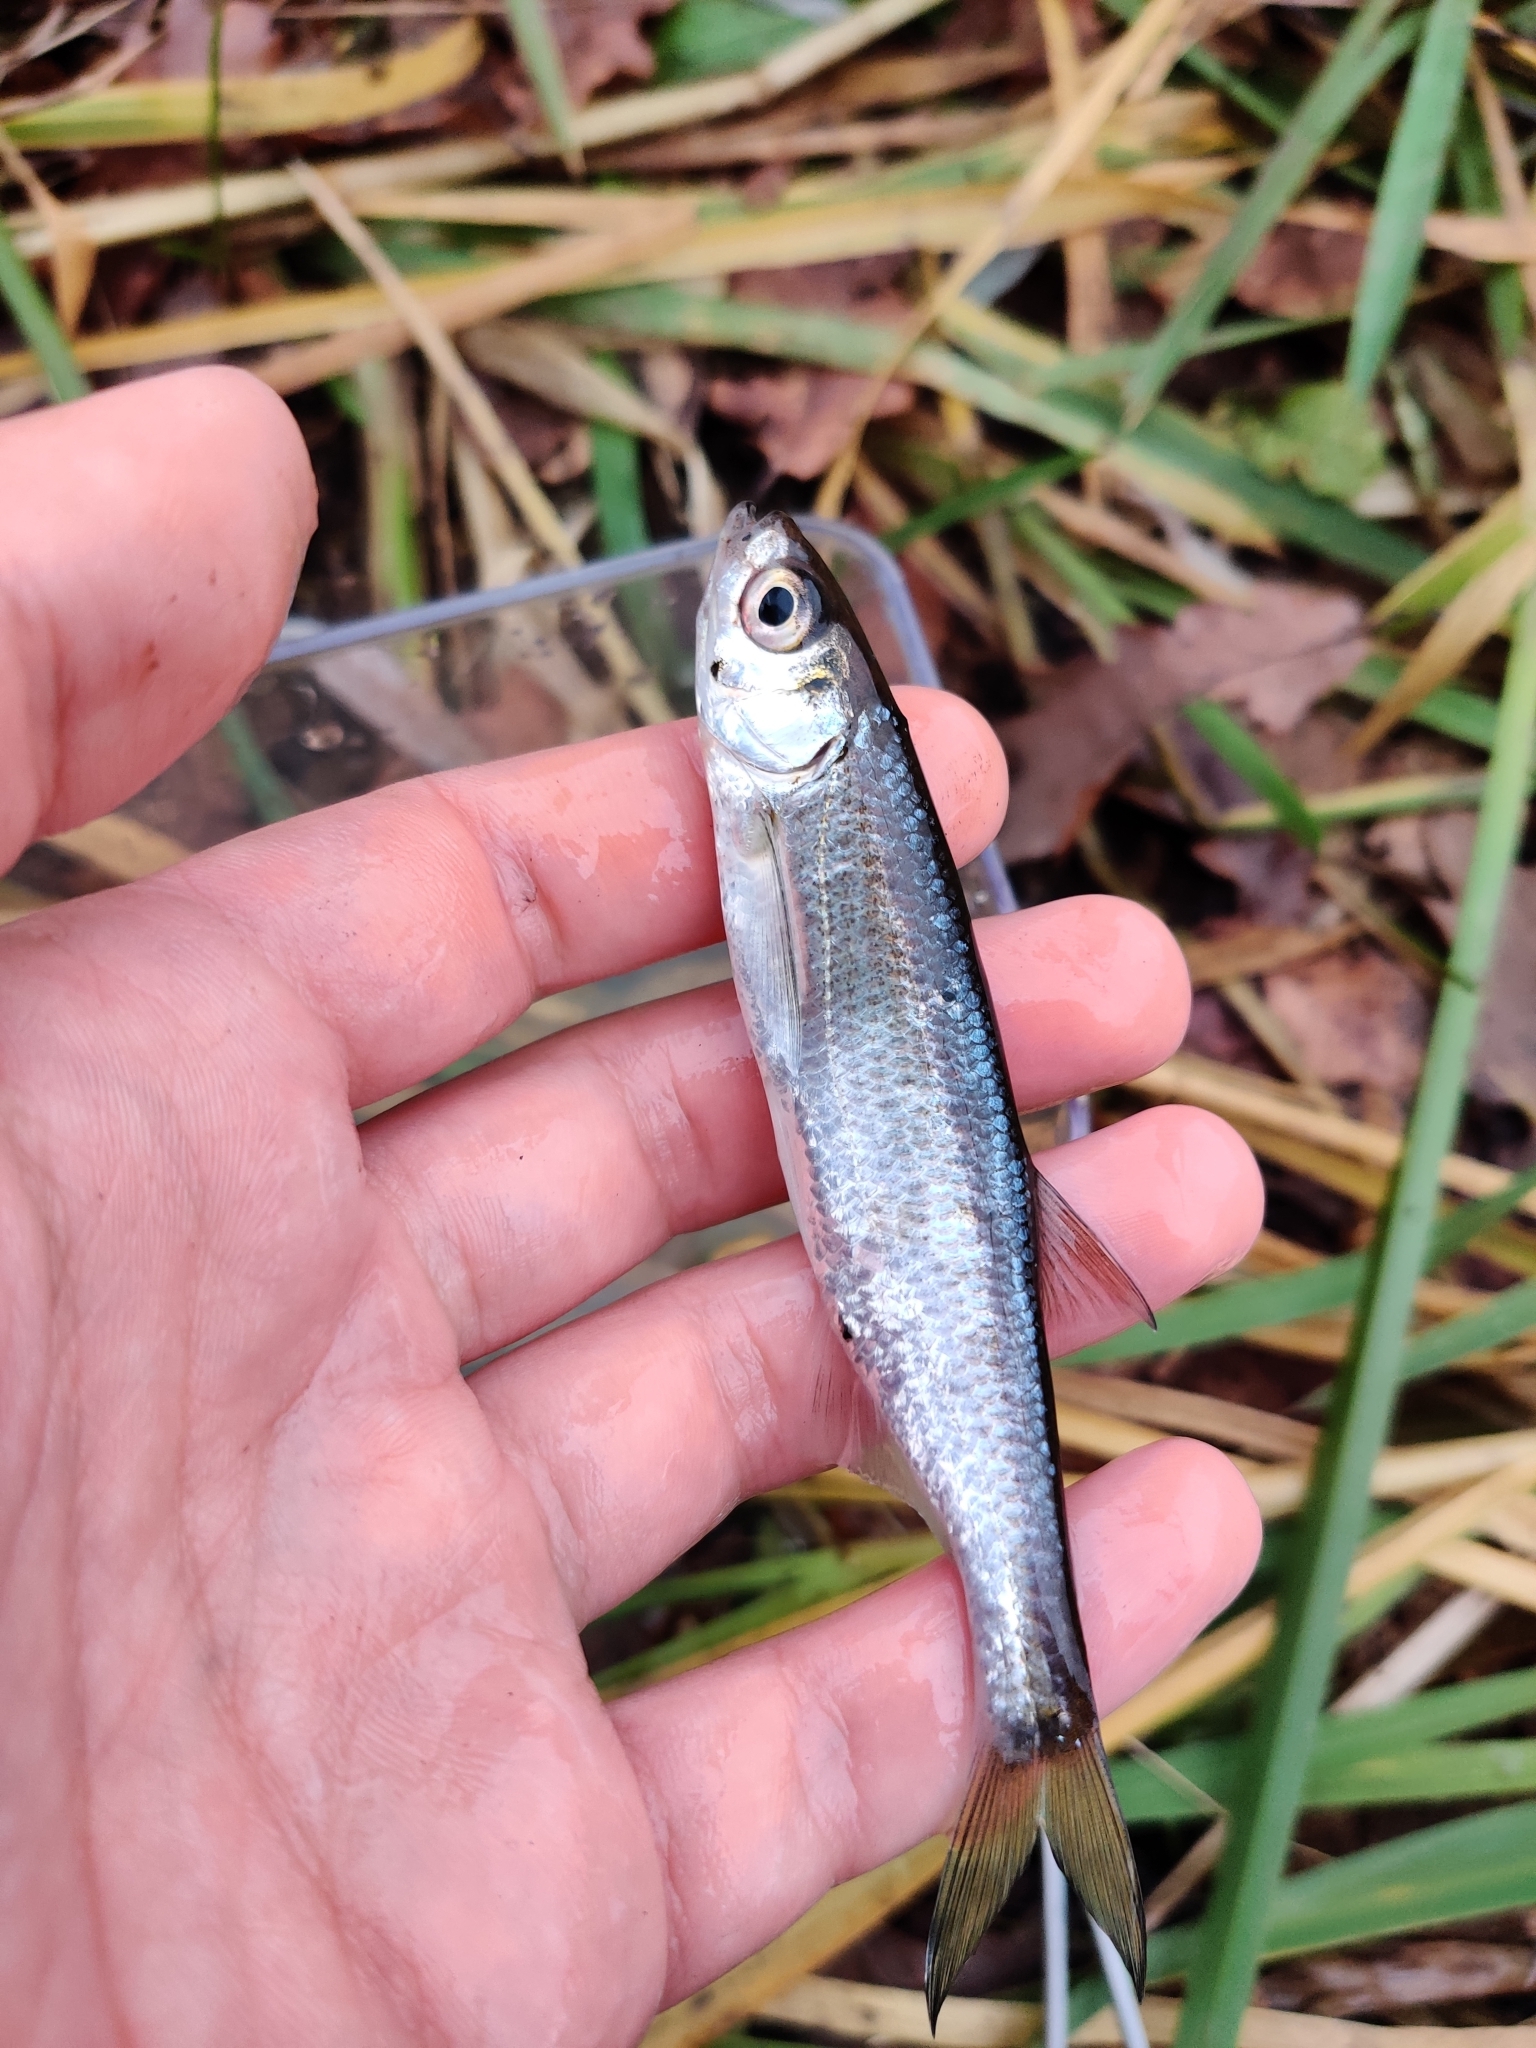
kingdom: Animalia
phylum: Chordata
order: Cypriniformes
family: Cyprinidae
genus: Alburnus
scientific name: Alburnus alburnus
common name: Bleak
